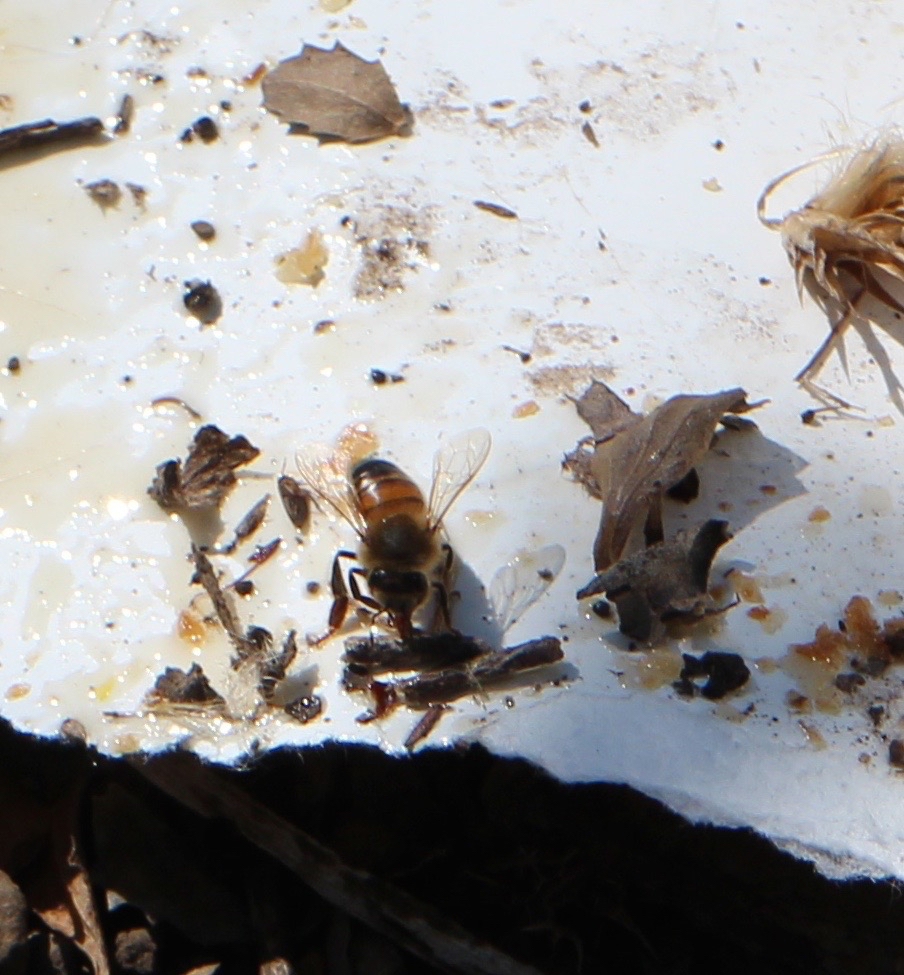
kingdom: Animalia
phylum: Arthropoda
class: Insecta
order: Hymenoptera
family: Apidae
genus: Apis
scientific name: Apis mellifera
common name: Honey bee
